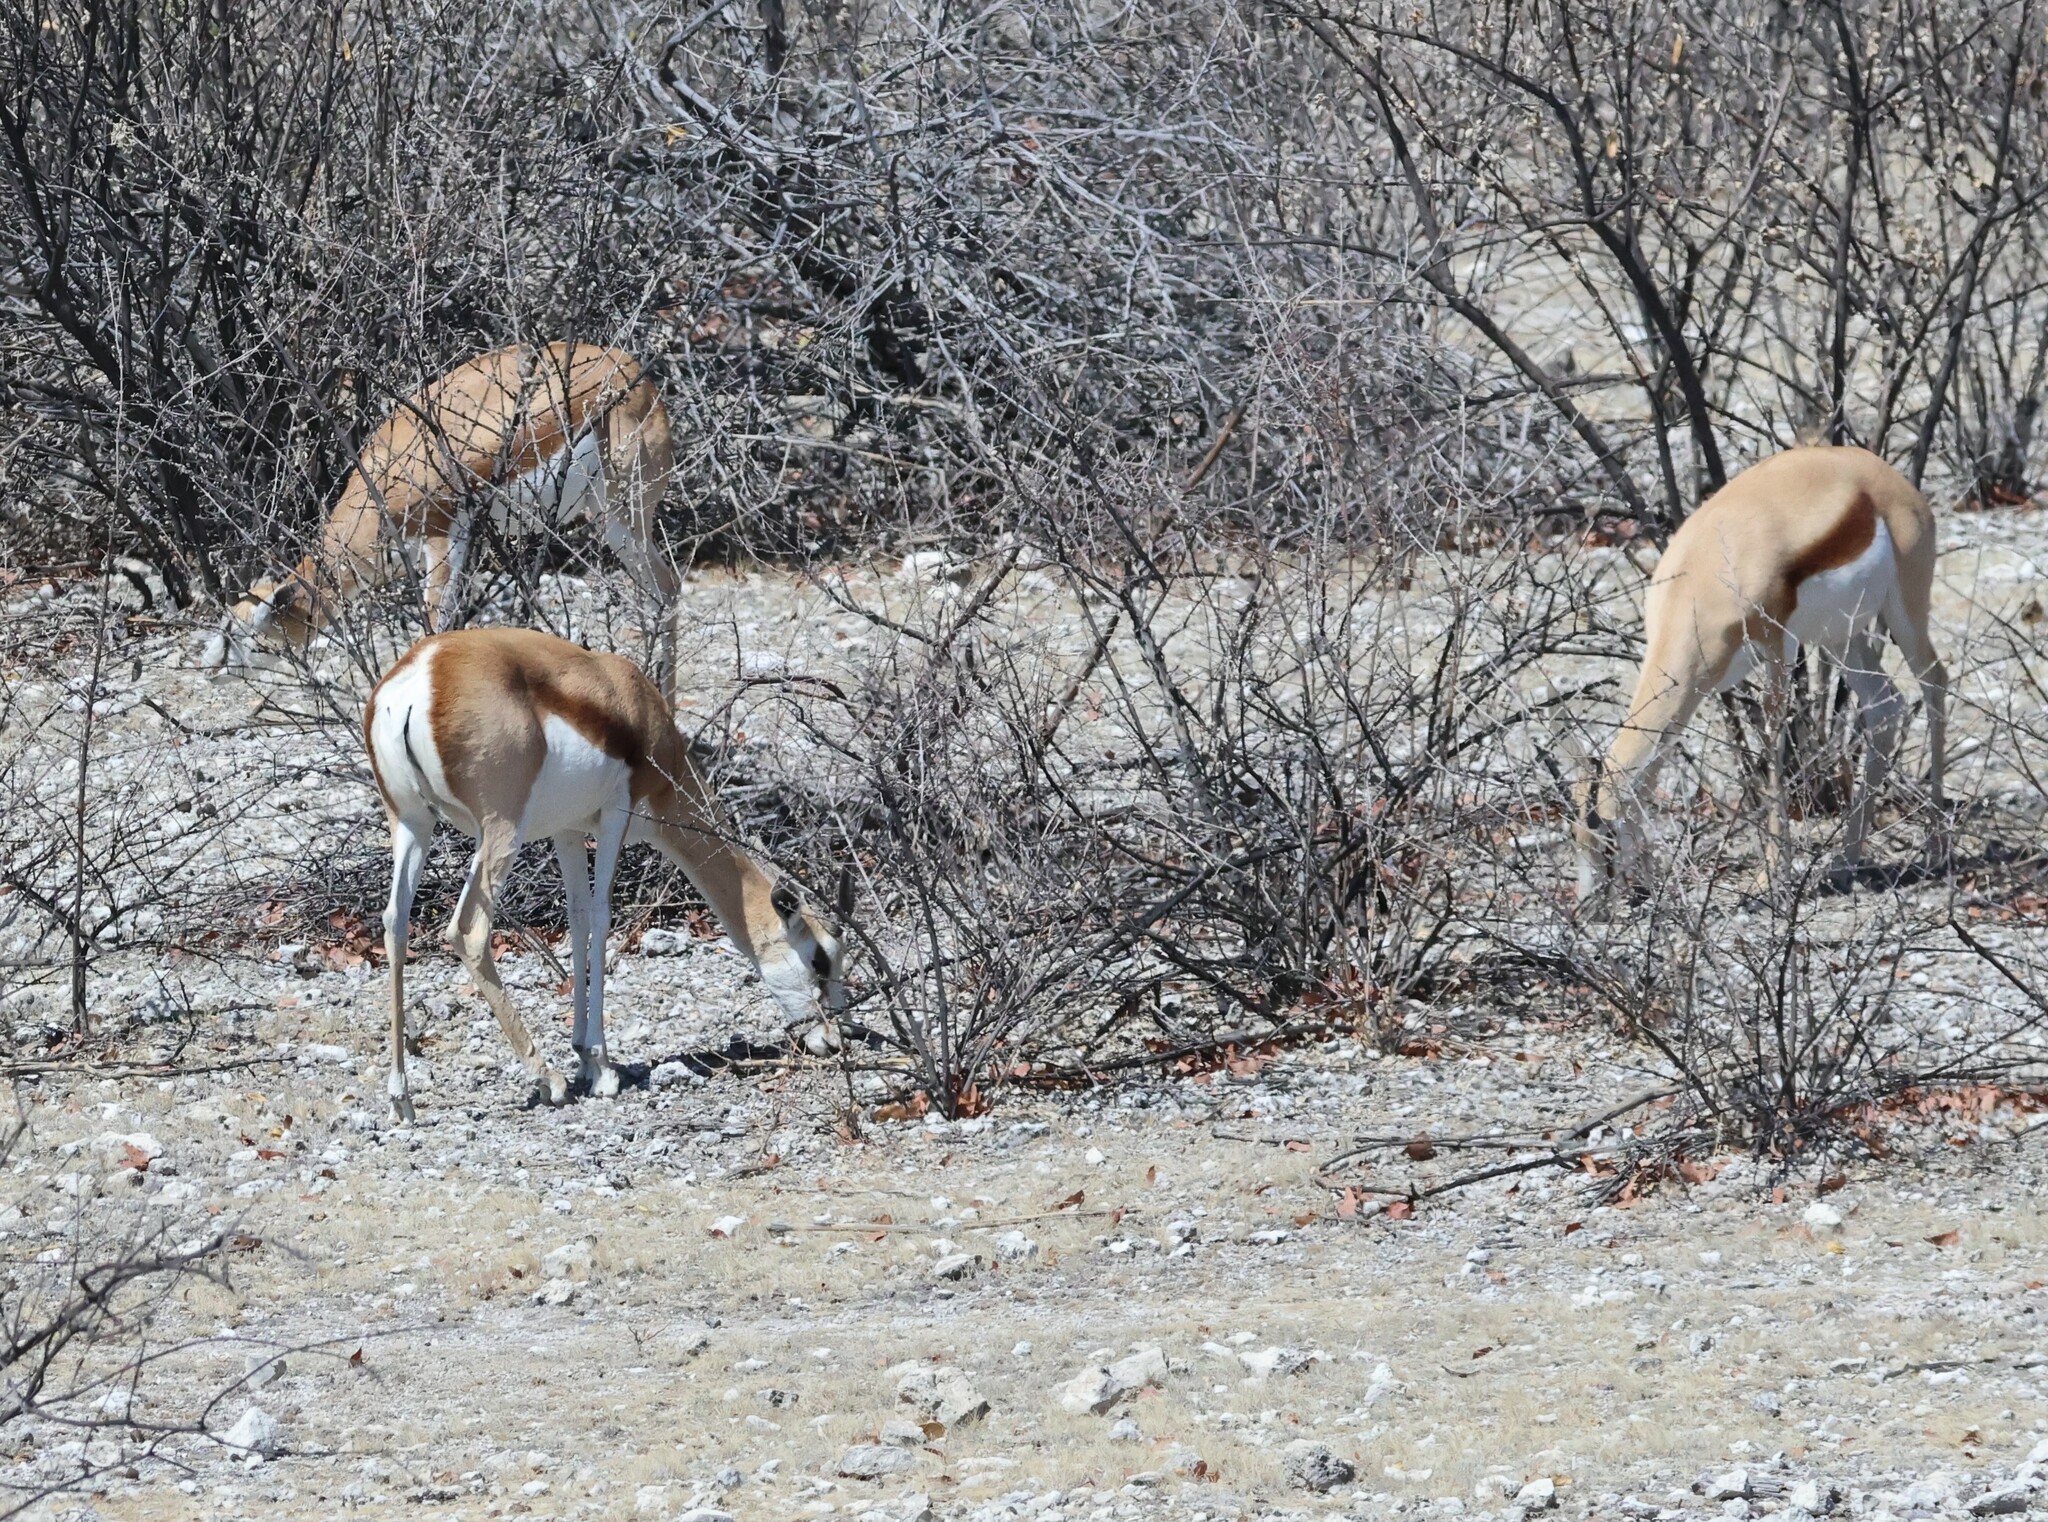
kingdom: Animalia
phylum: Chordata
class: Mammalia
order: Artiodactyla
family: Bovidae
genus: Antidorcas
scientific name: Antidorcas marsupialis
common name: Springbok
